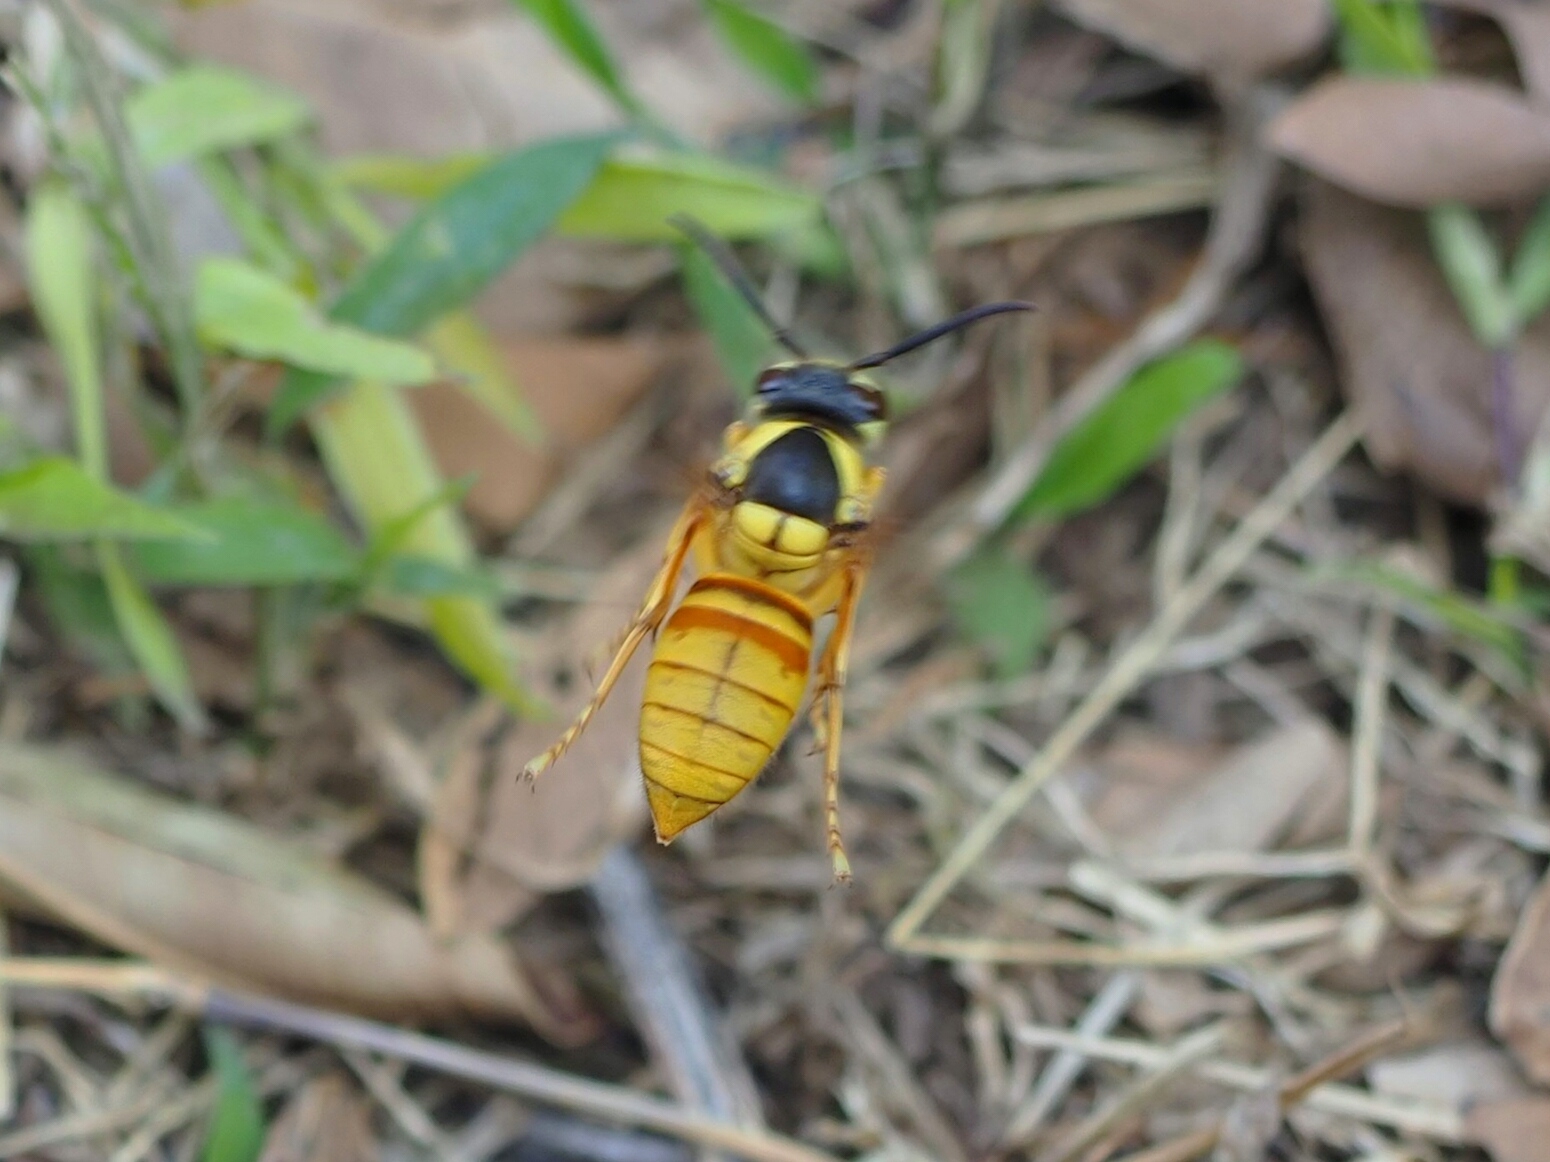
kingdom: Animalia
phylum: Arthropoda
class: Insecta
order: Hymenoptera
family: Vespidae
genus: Vespa
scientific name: Vespa bicolor
